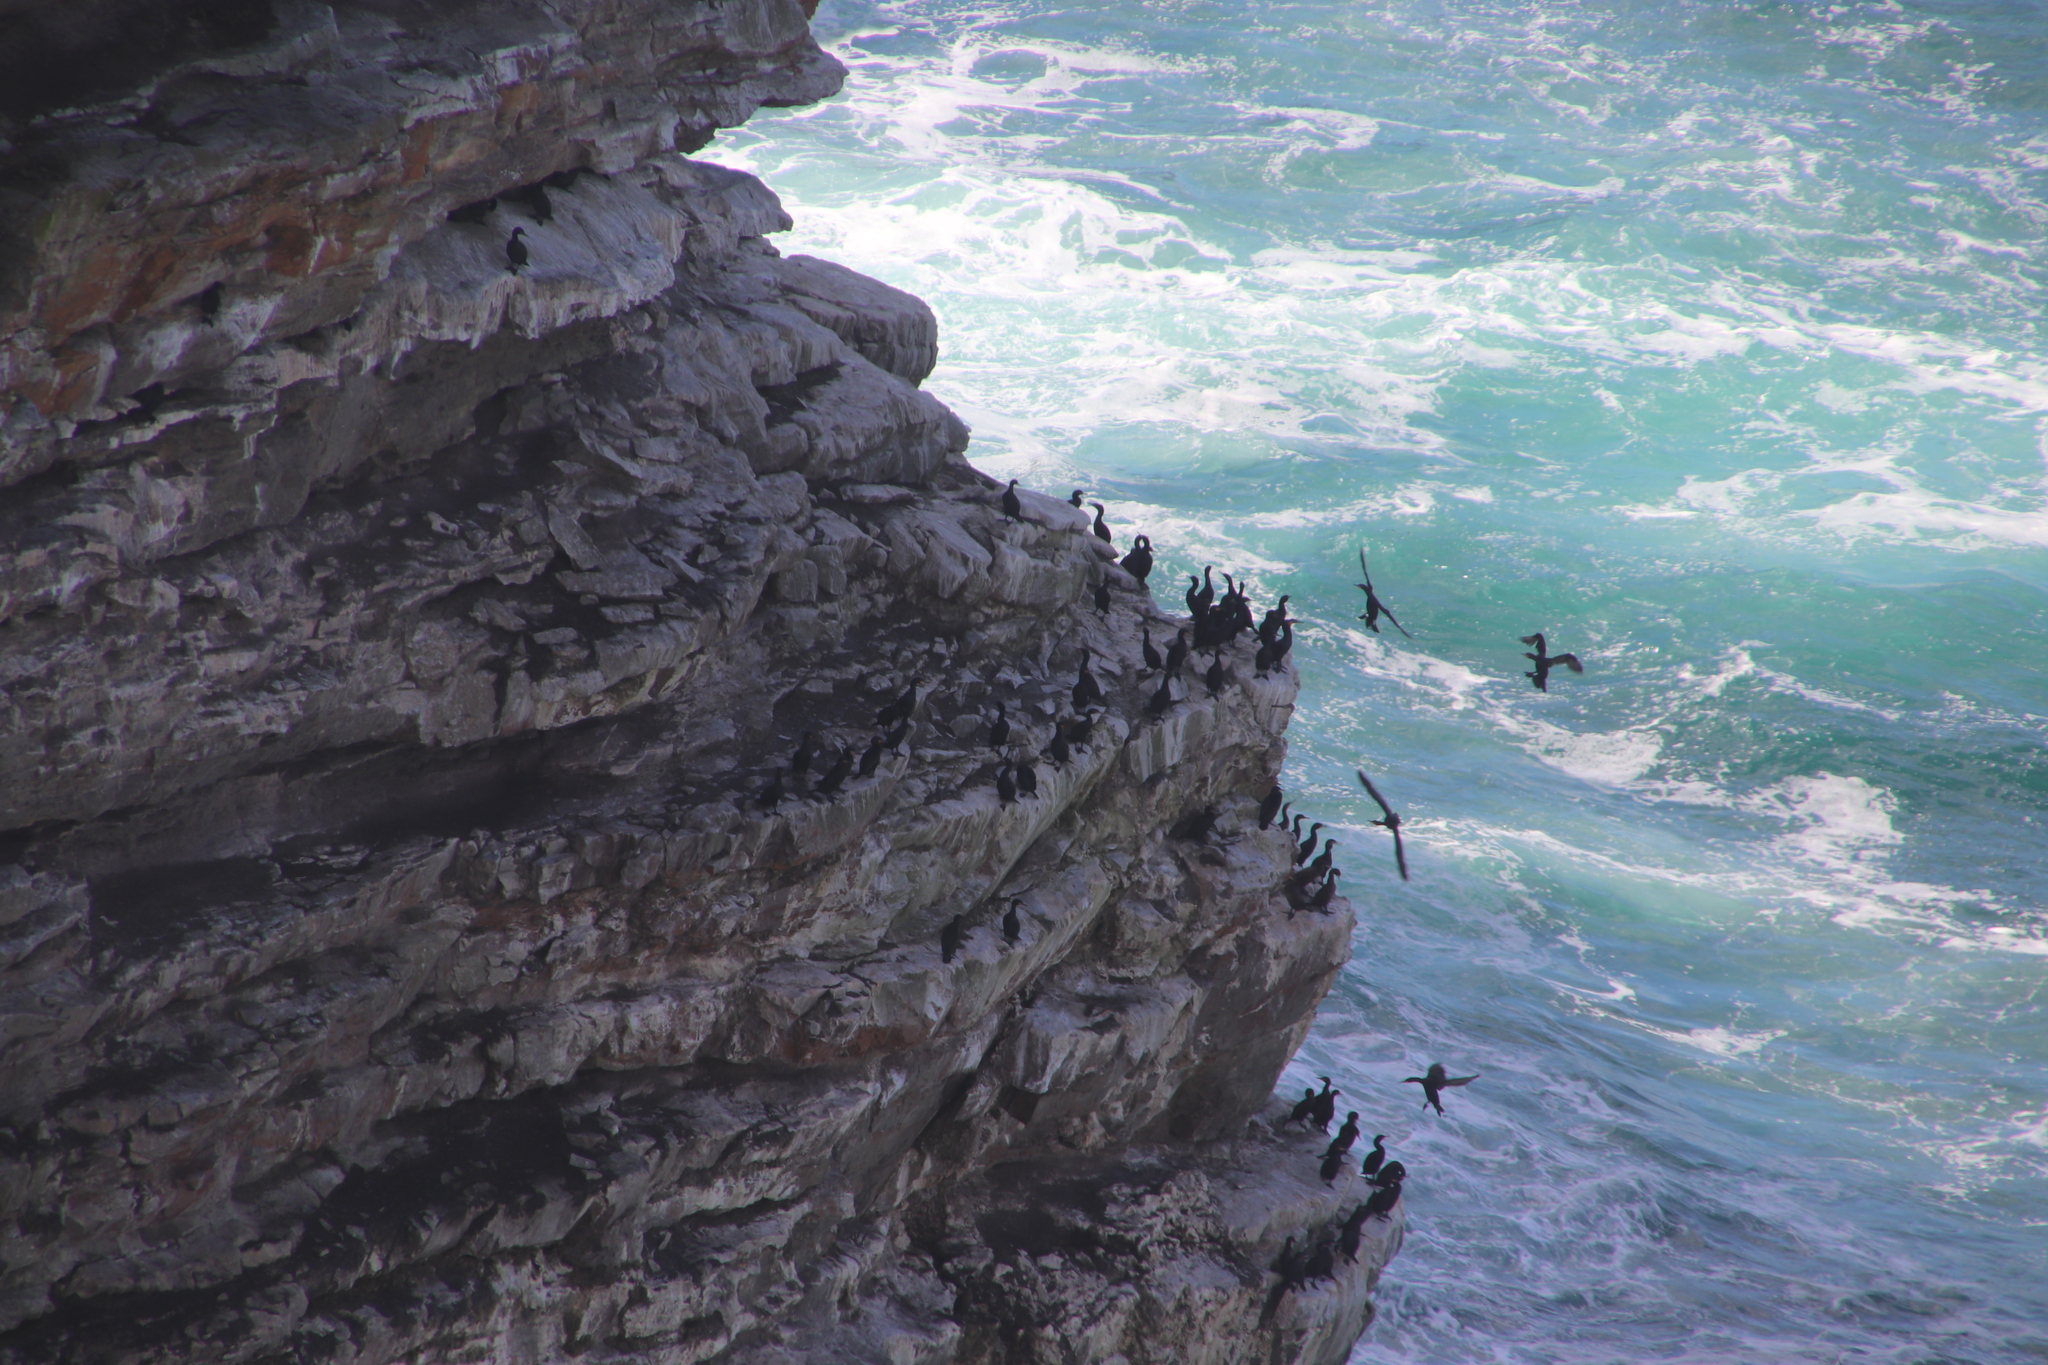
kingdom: Animalia
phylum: Chordata
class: Aves
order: Suliformes
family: Phalacrocoracidae
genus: Phalacrocorax
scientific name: Phalacrocorax capensis
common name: Cape cormorant
